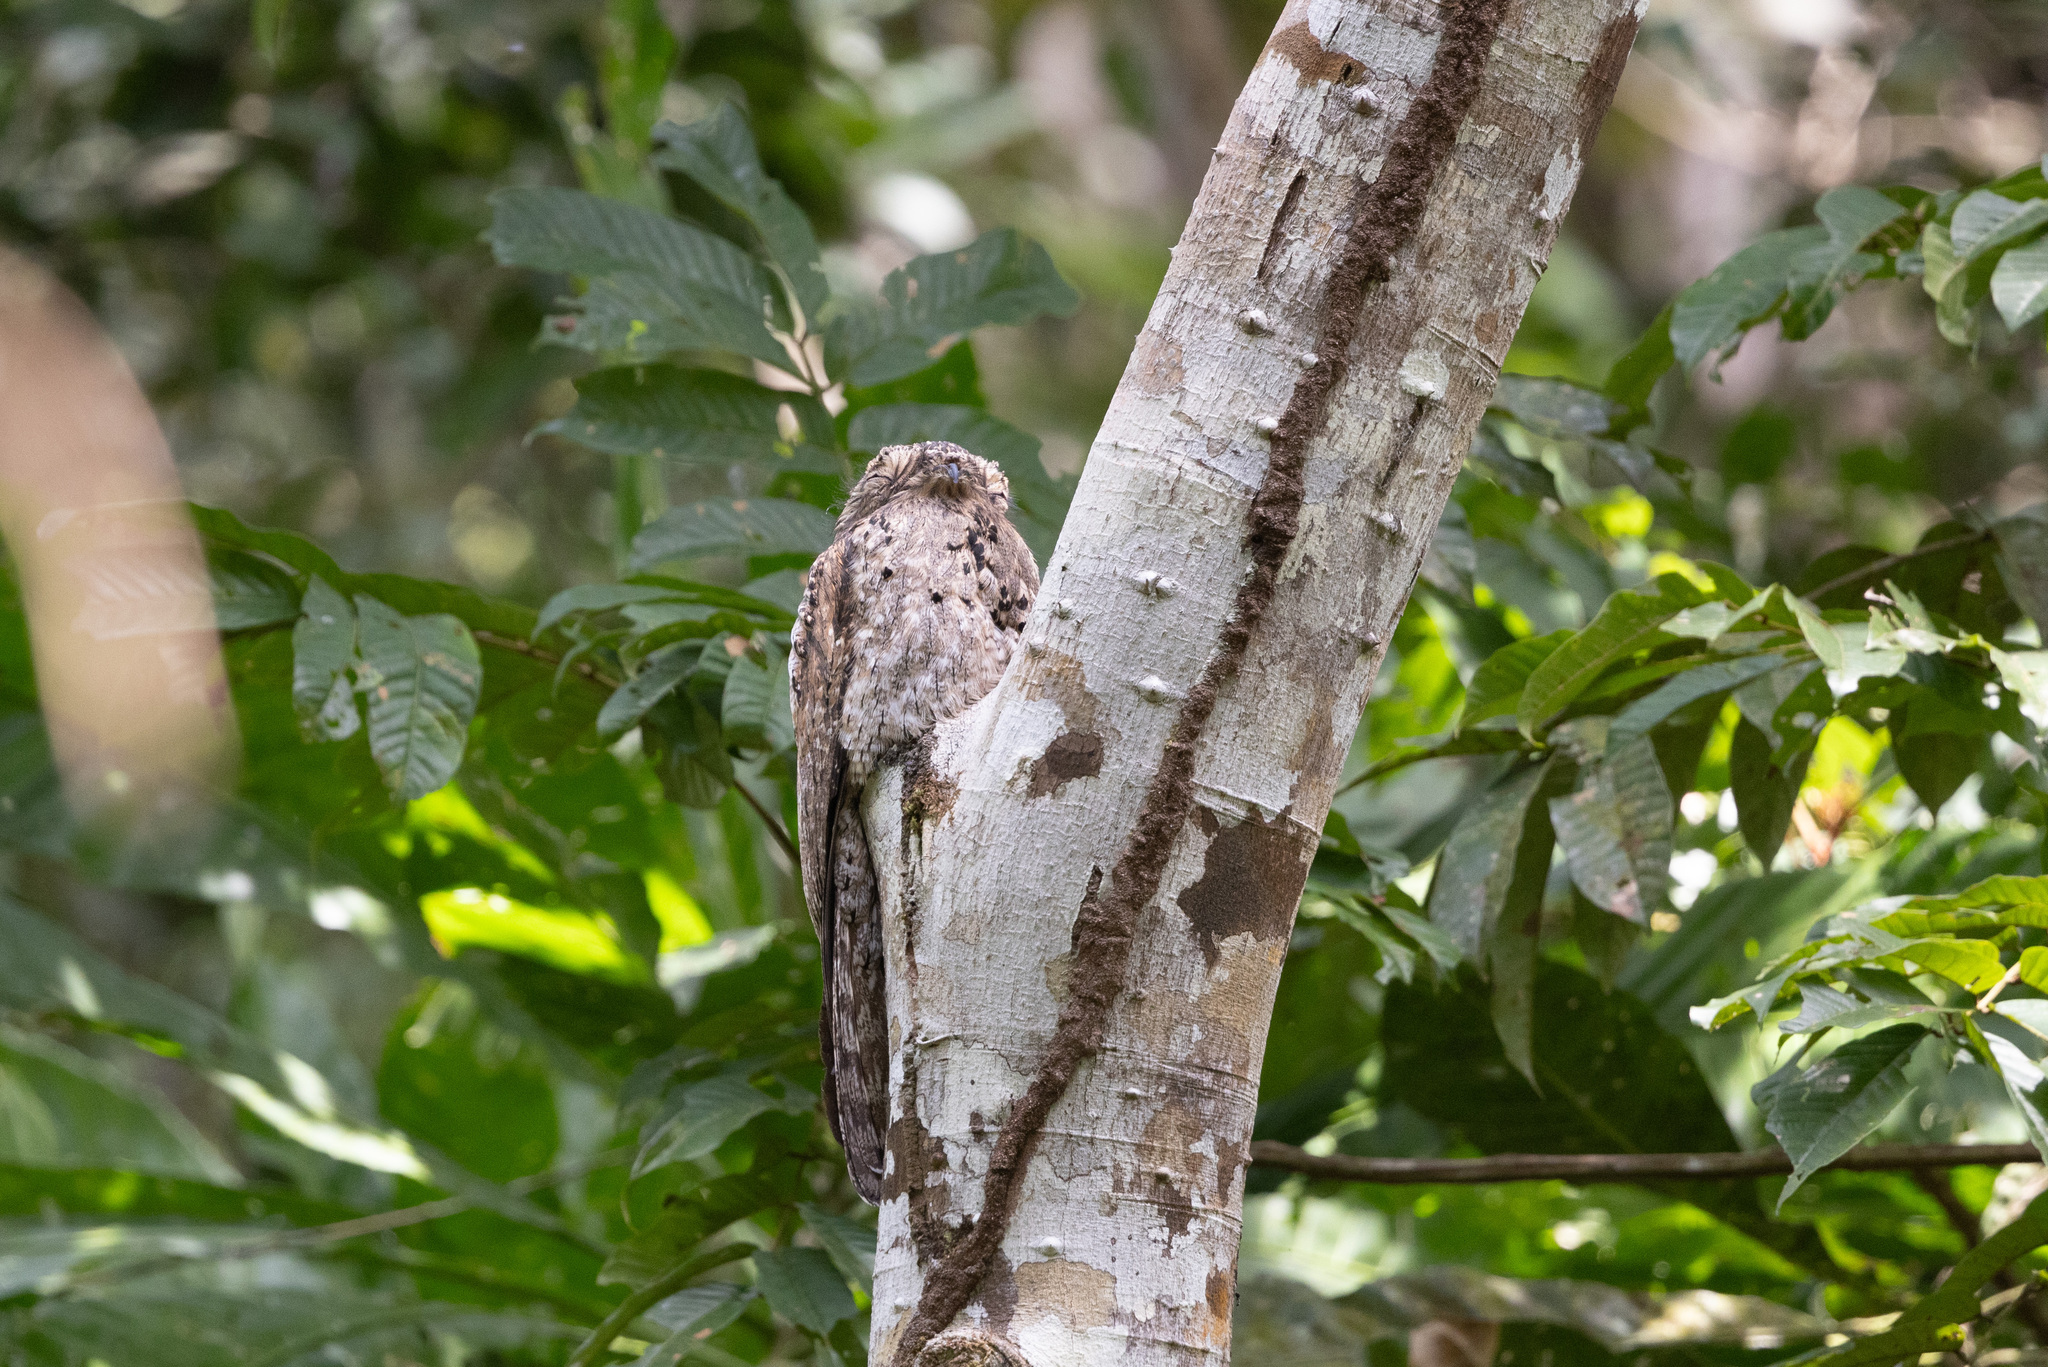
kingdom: Animalia
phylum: Chordata
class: Aves
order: Nyctibiiformes
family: Nyctibiidae
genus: Nyctibius
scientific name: Nyctibius grandis
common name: Great potoo
